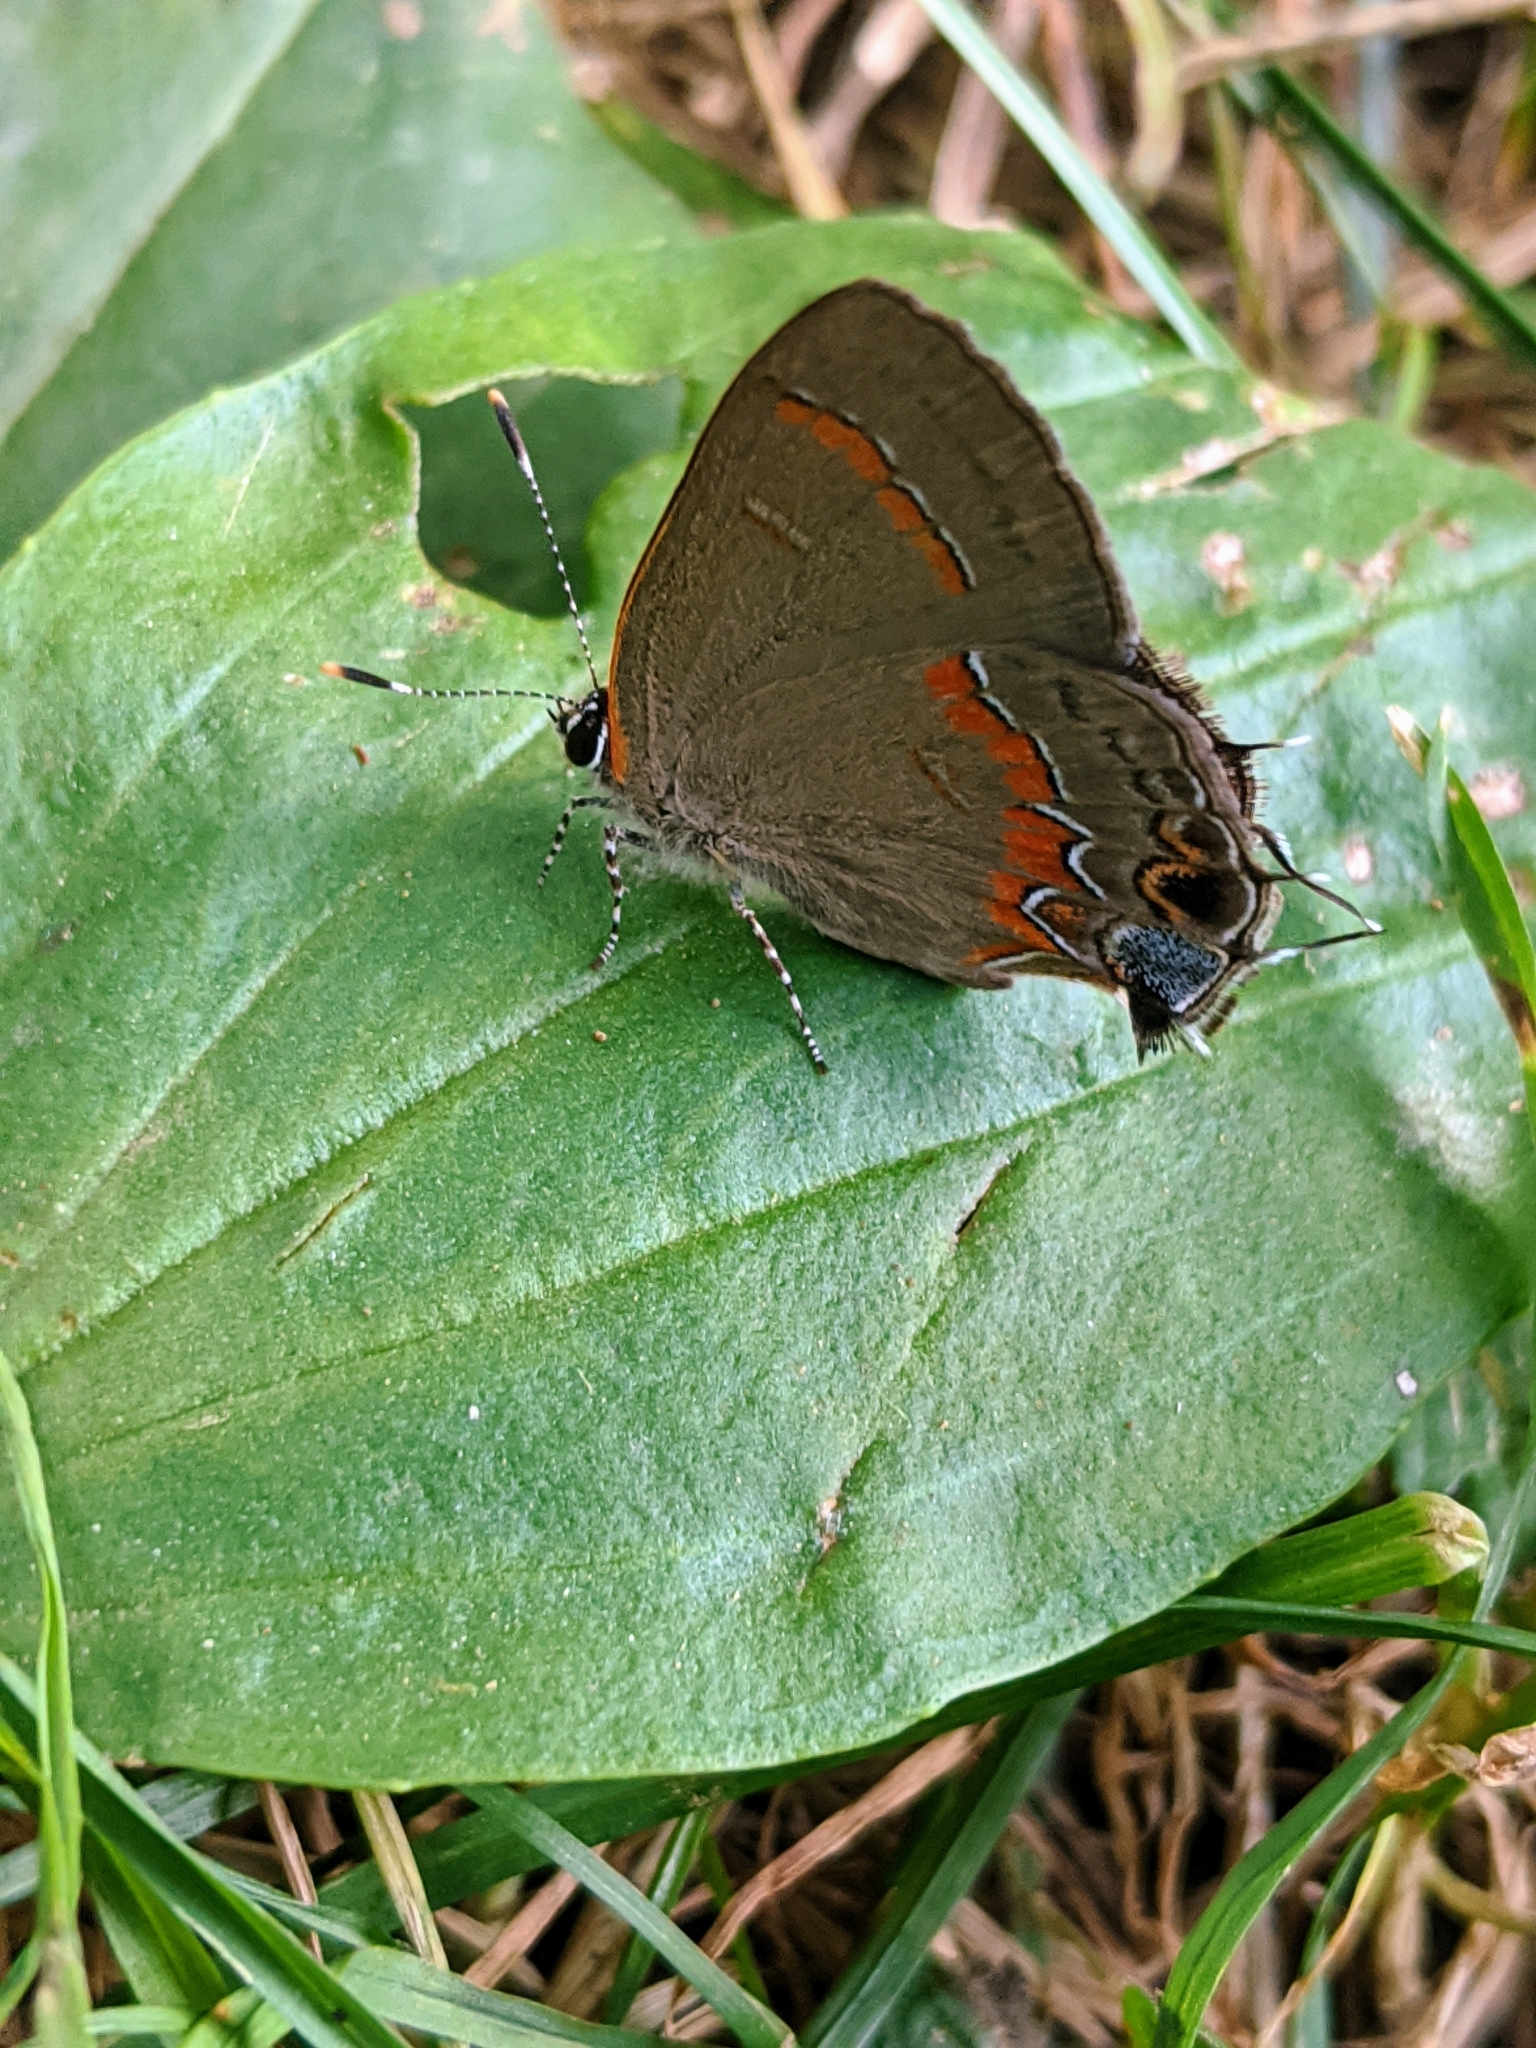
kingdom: Animalia
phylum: Arthropoda
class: Insecta
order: Lepidoptera
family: Lycaenidae
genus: Calycopis
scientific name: Calycopis cecrops
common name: Red-banded hairstreak
